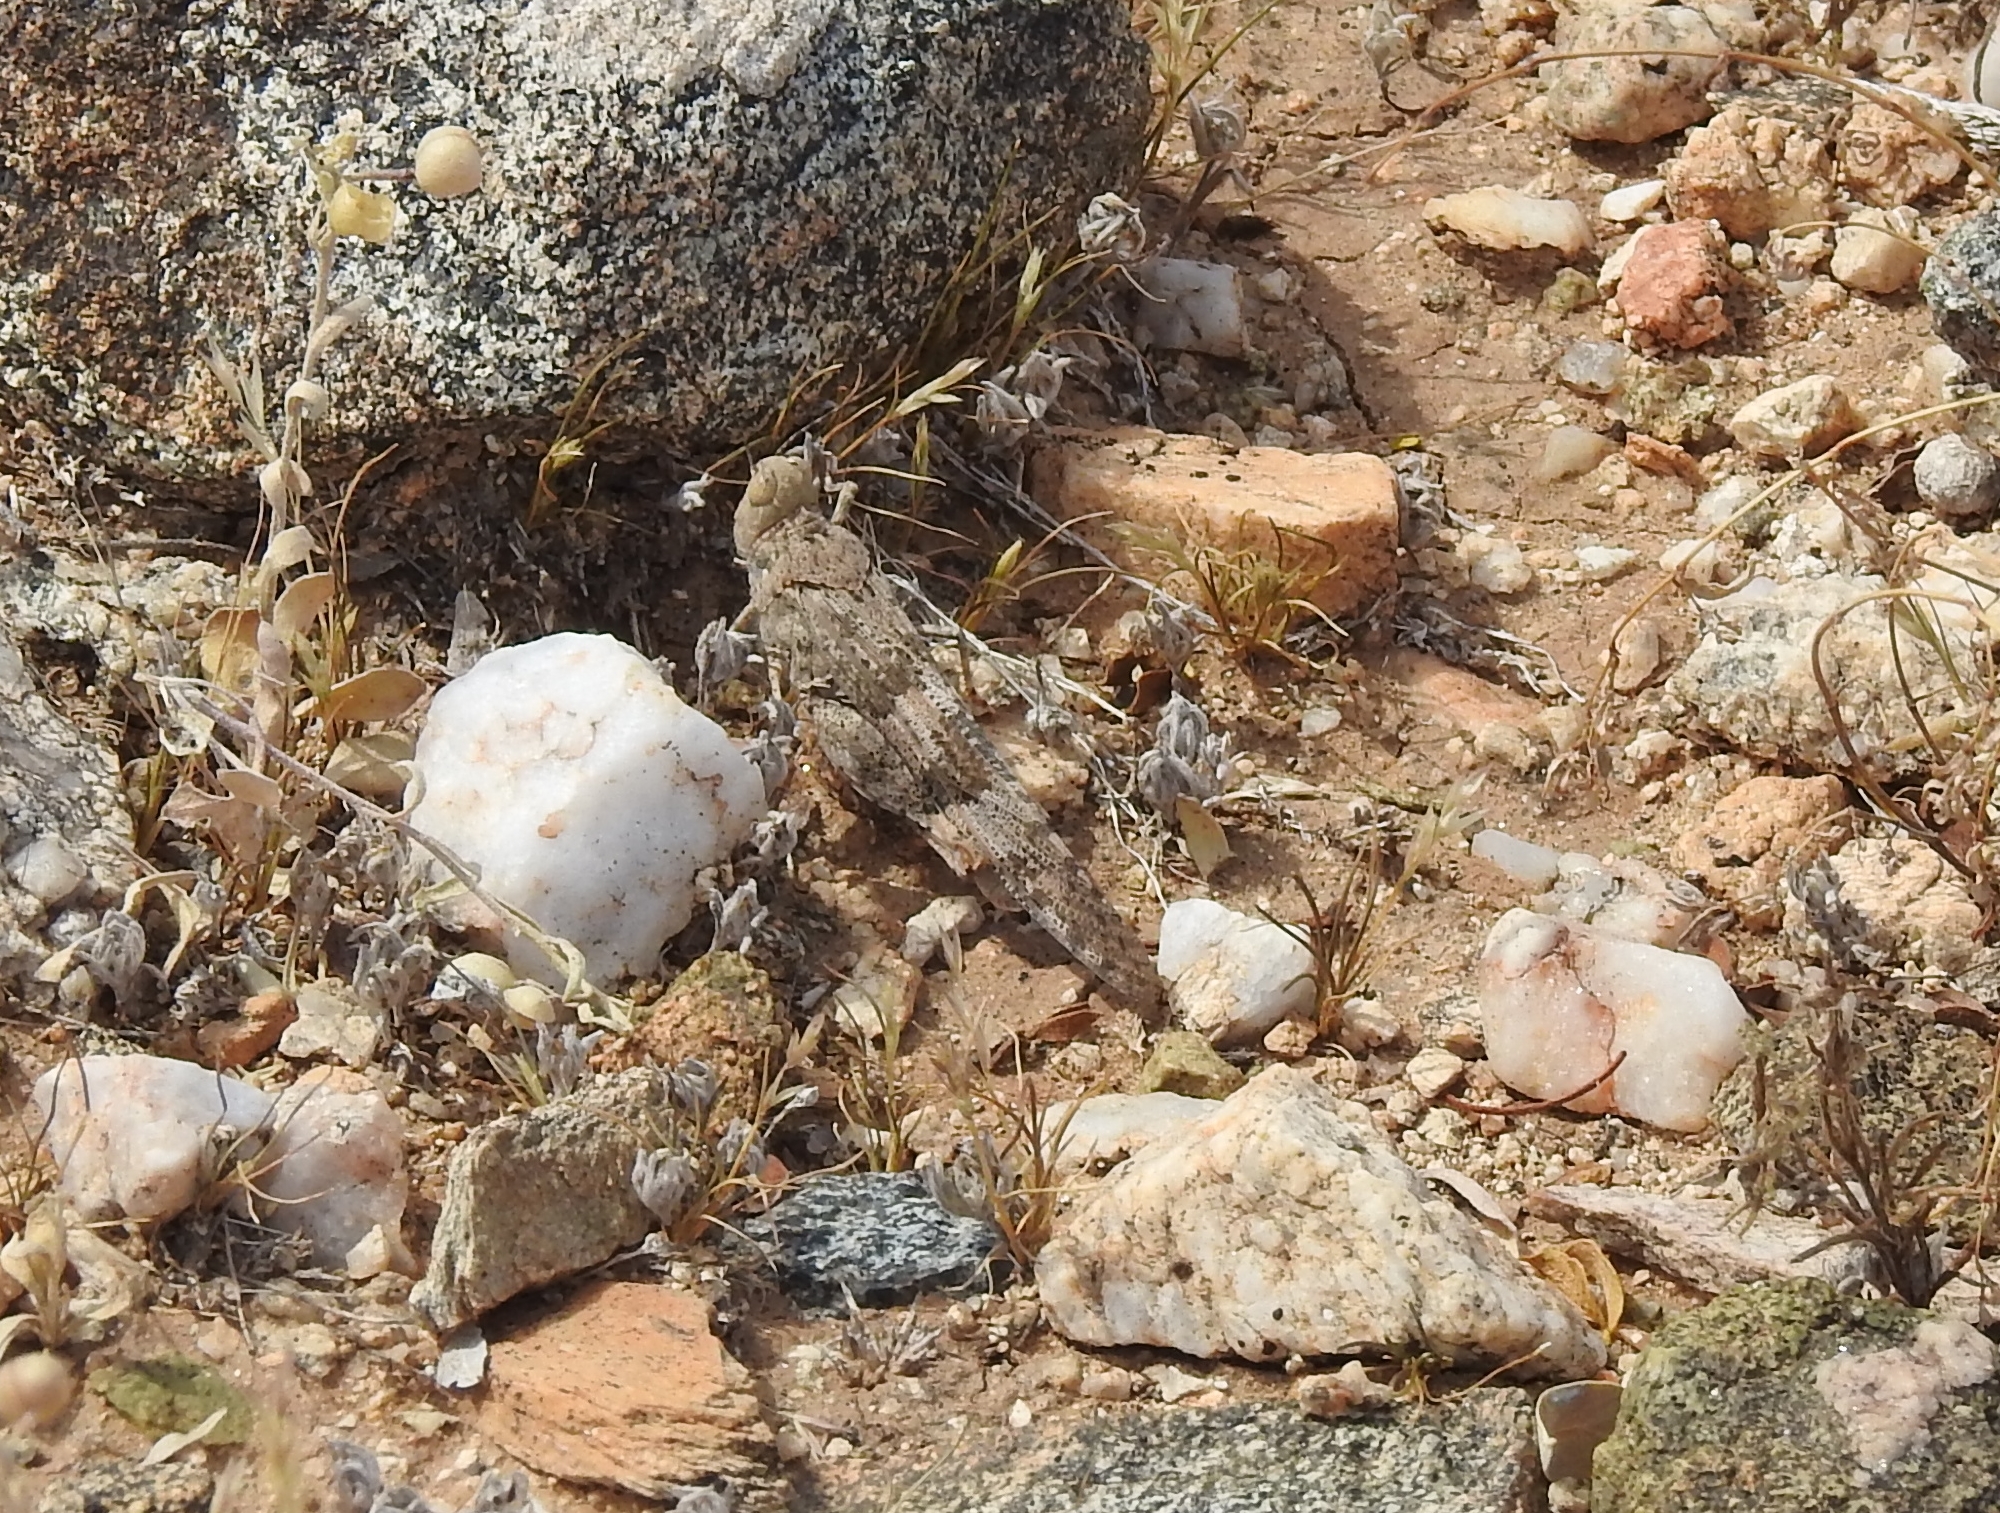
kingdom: Animalia
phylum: Arthropoda
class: Insecta
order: Orthoptera
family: Acrididae
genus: Trimerotropis
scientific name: Trimerotropis pallidipennis
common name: Pallid-winged grasshopper
